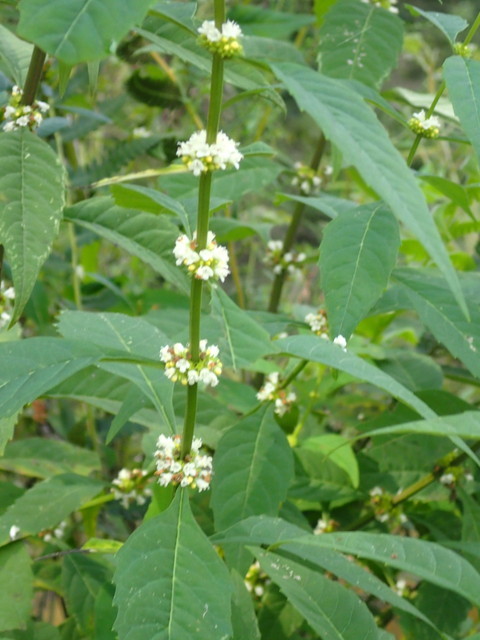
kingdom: Plantae
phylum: Tracheophyta
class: Magnoliopsida
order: Lamiales
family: Lamiaceae
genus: Lycopus
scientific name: Lycopus rubellus
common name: Stalked bugleweed
